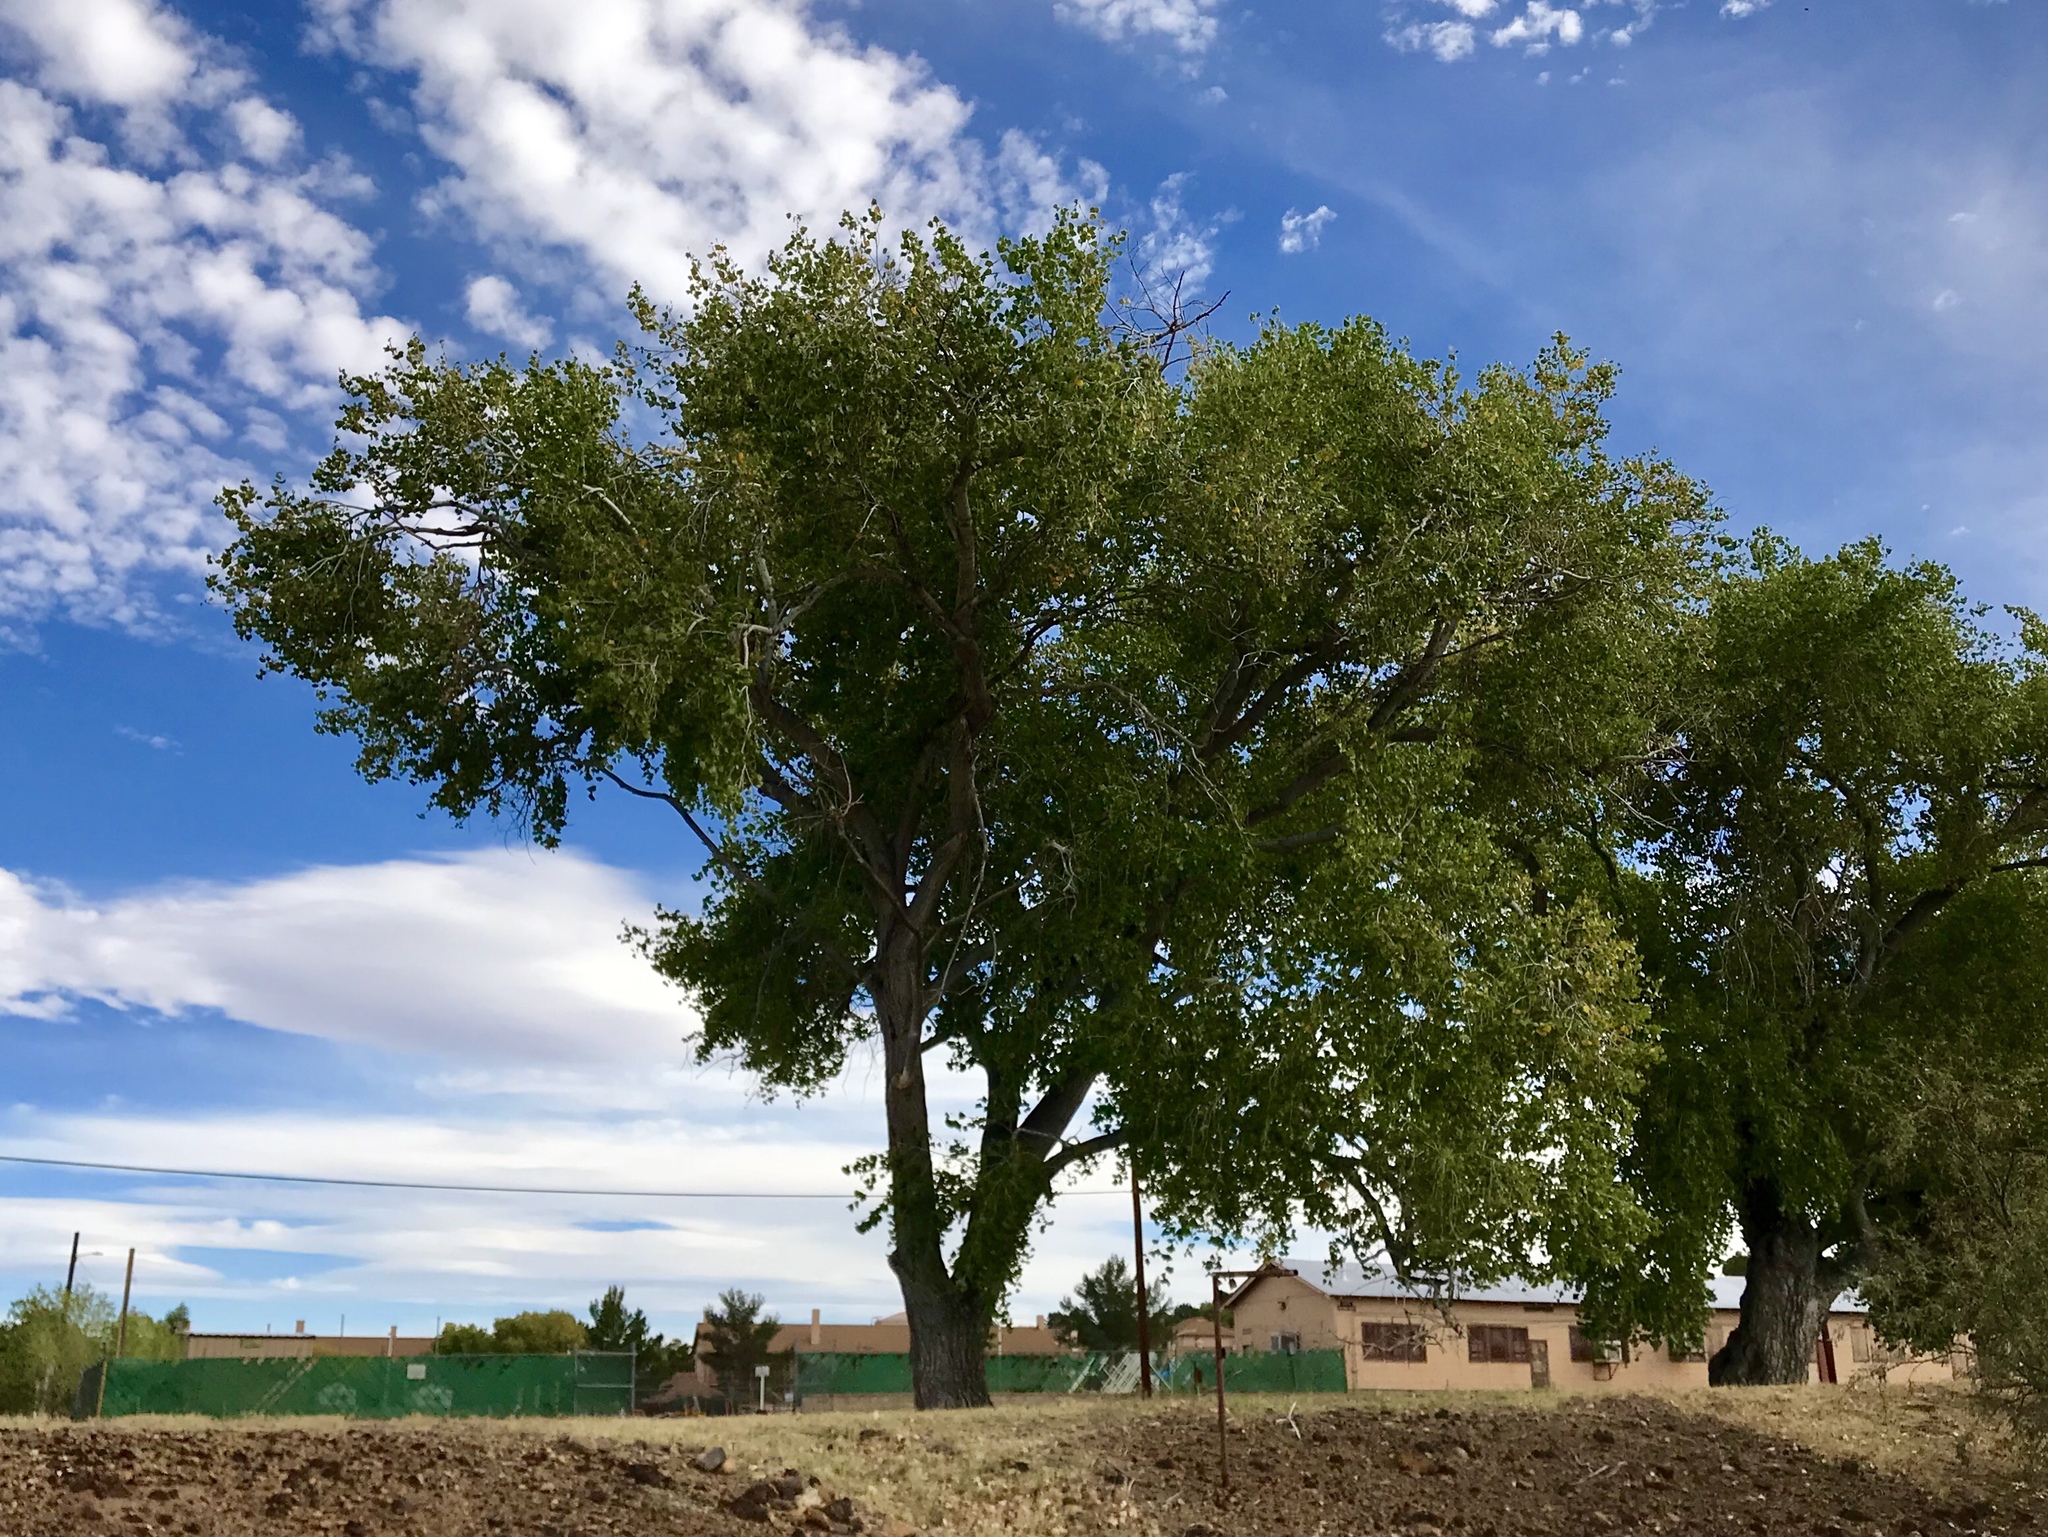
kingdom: Plantae
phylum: Tracheophyta
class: Magnoliopsida
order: Malpighiales
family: Salicaceae
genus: Populus
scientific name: Populus fremontii
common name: Fremont's cottonwood
